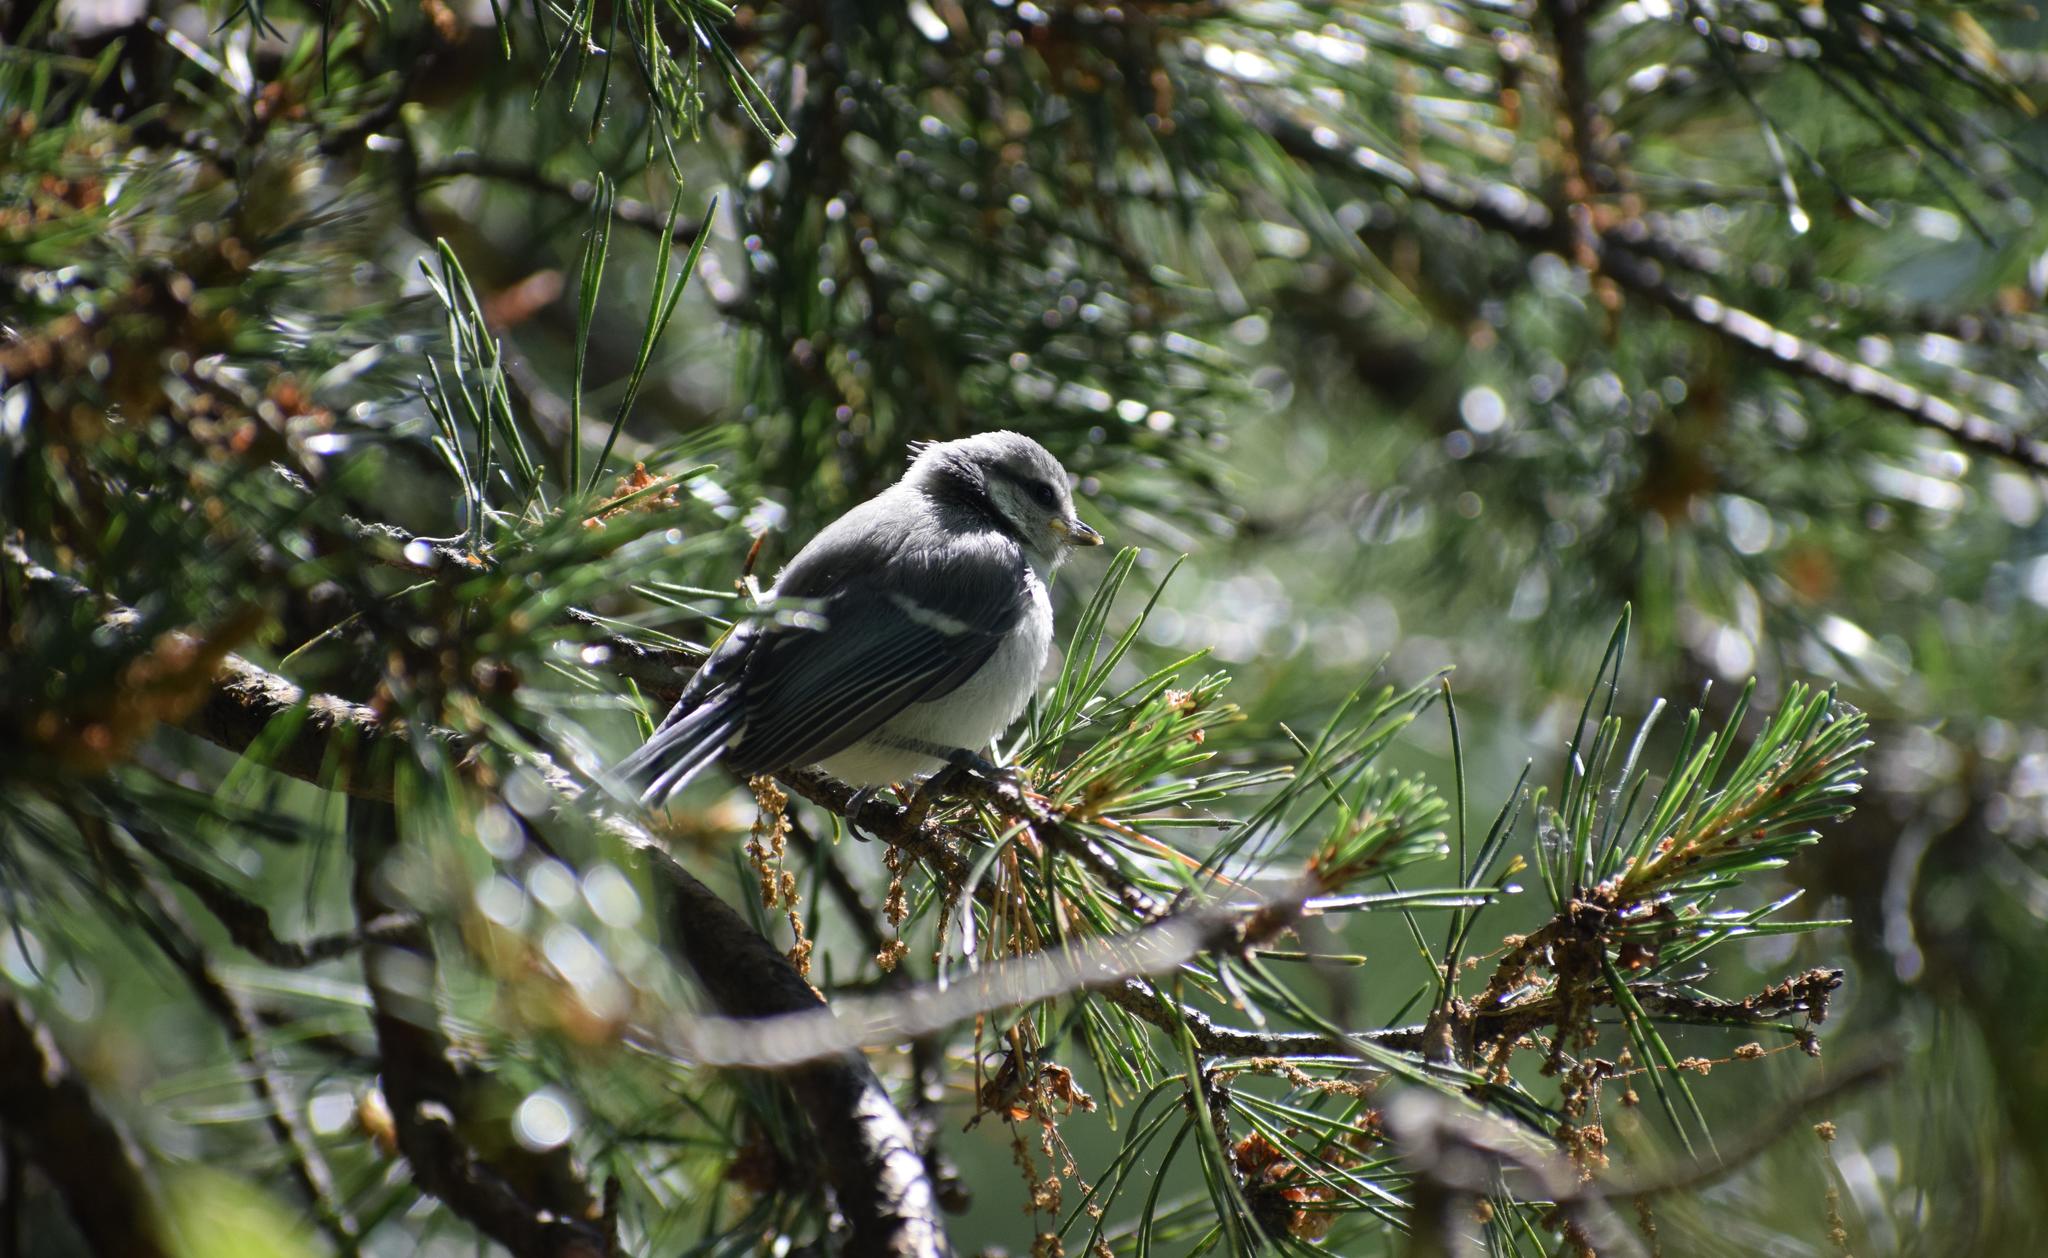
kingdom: Animalia
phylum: Chordata
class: Aves
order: Passeriformes
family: Paridae
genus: Cyanistes
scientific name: Cyanistes caeruleus
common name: Eurasian blue tit
